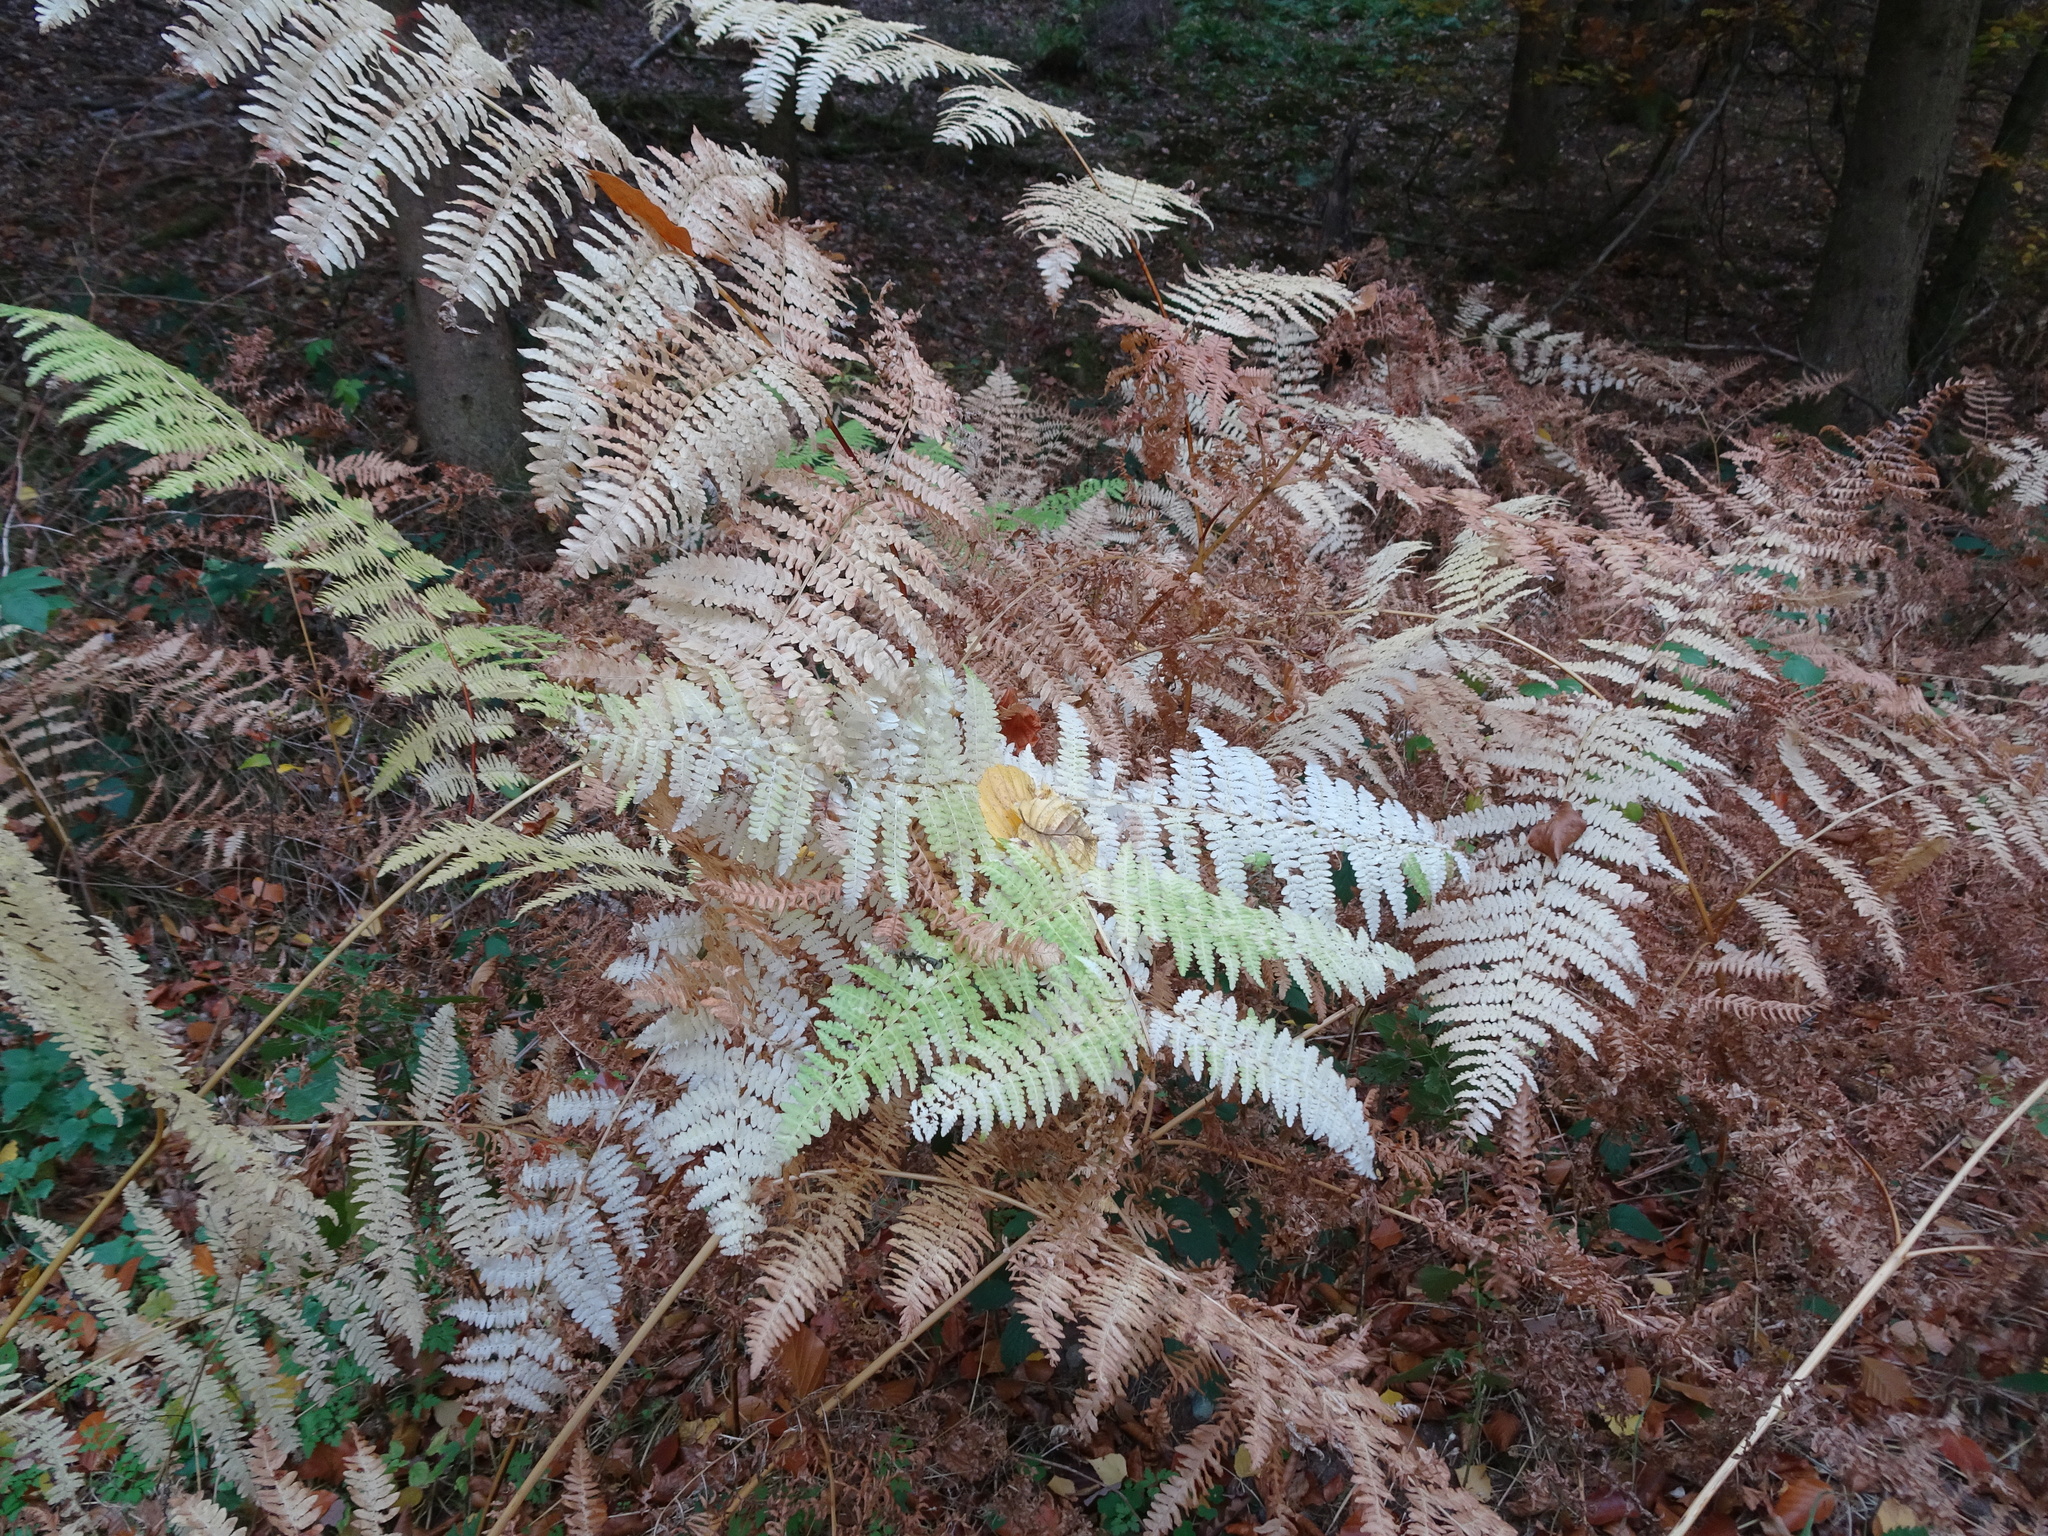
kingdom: Plantae
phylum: Tracheophyta
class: Polypodiopsida
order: Polypodiales
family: Dennstaedtiaceae
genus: Pteridium
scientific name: Pteridium aquilinum
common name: Bracken
